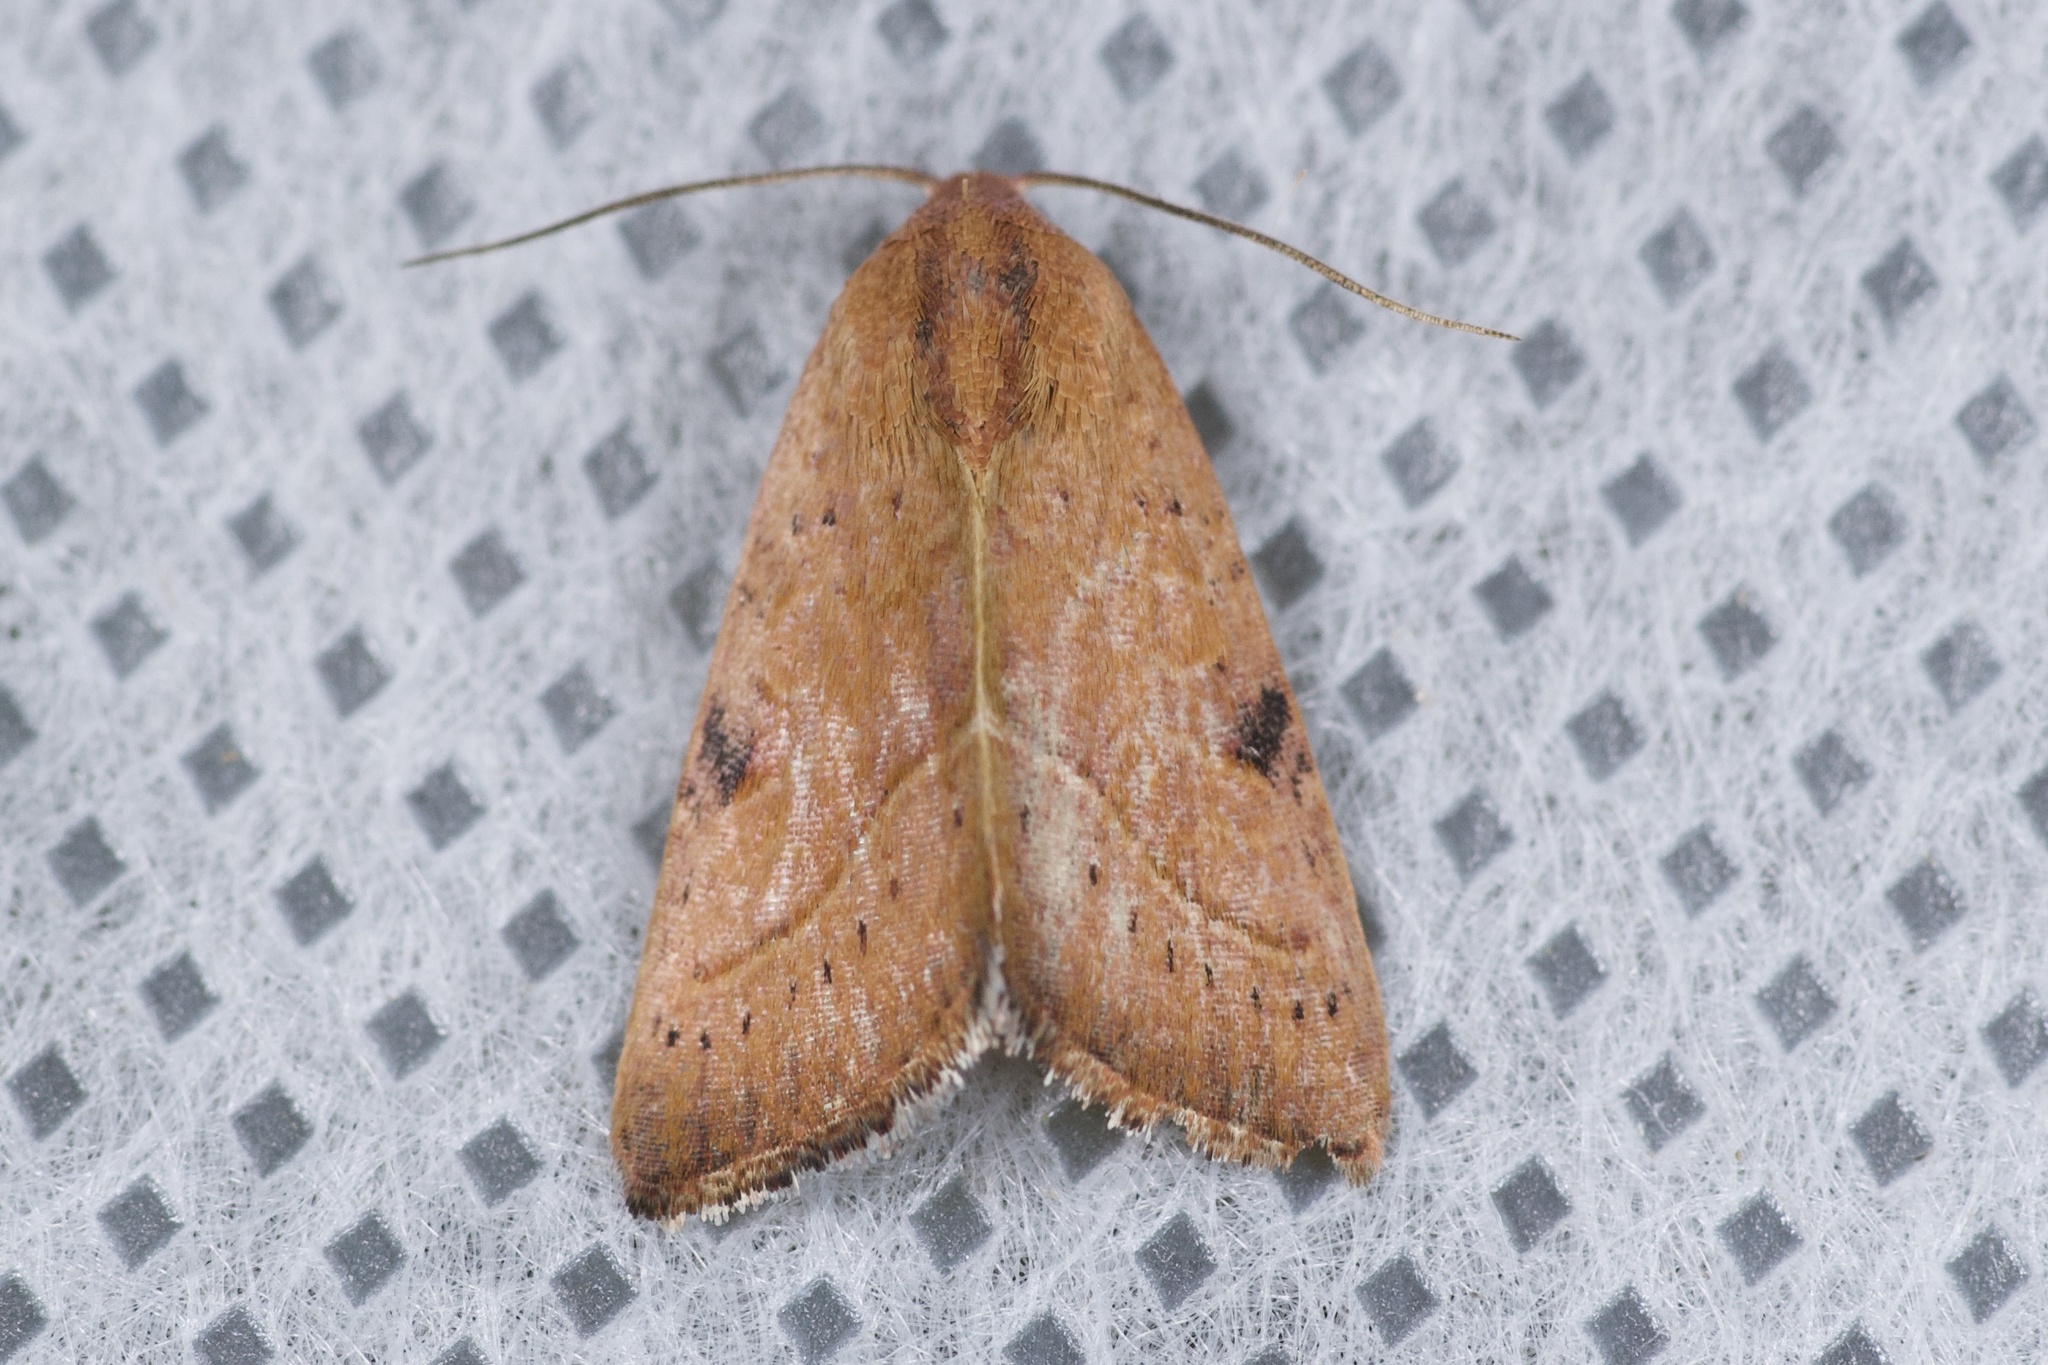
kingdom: Animalia
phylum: Arthropoda
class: Insecta
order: Lepidoptera
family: Noctuidae
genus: Galgula
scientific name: Galgula partita
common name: Wedgeling
